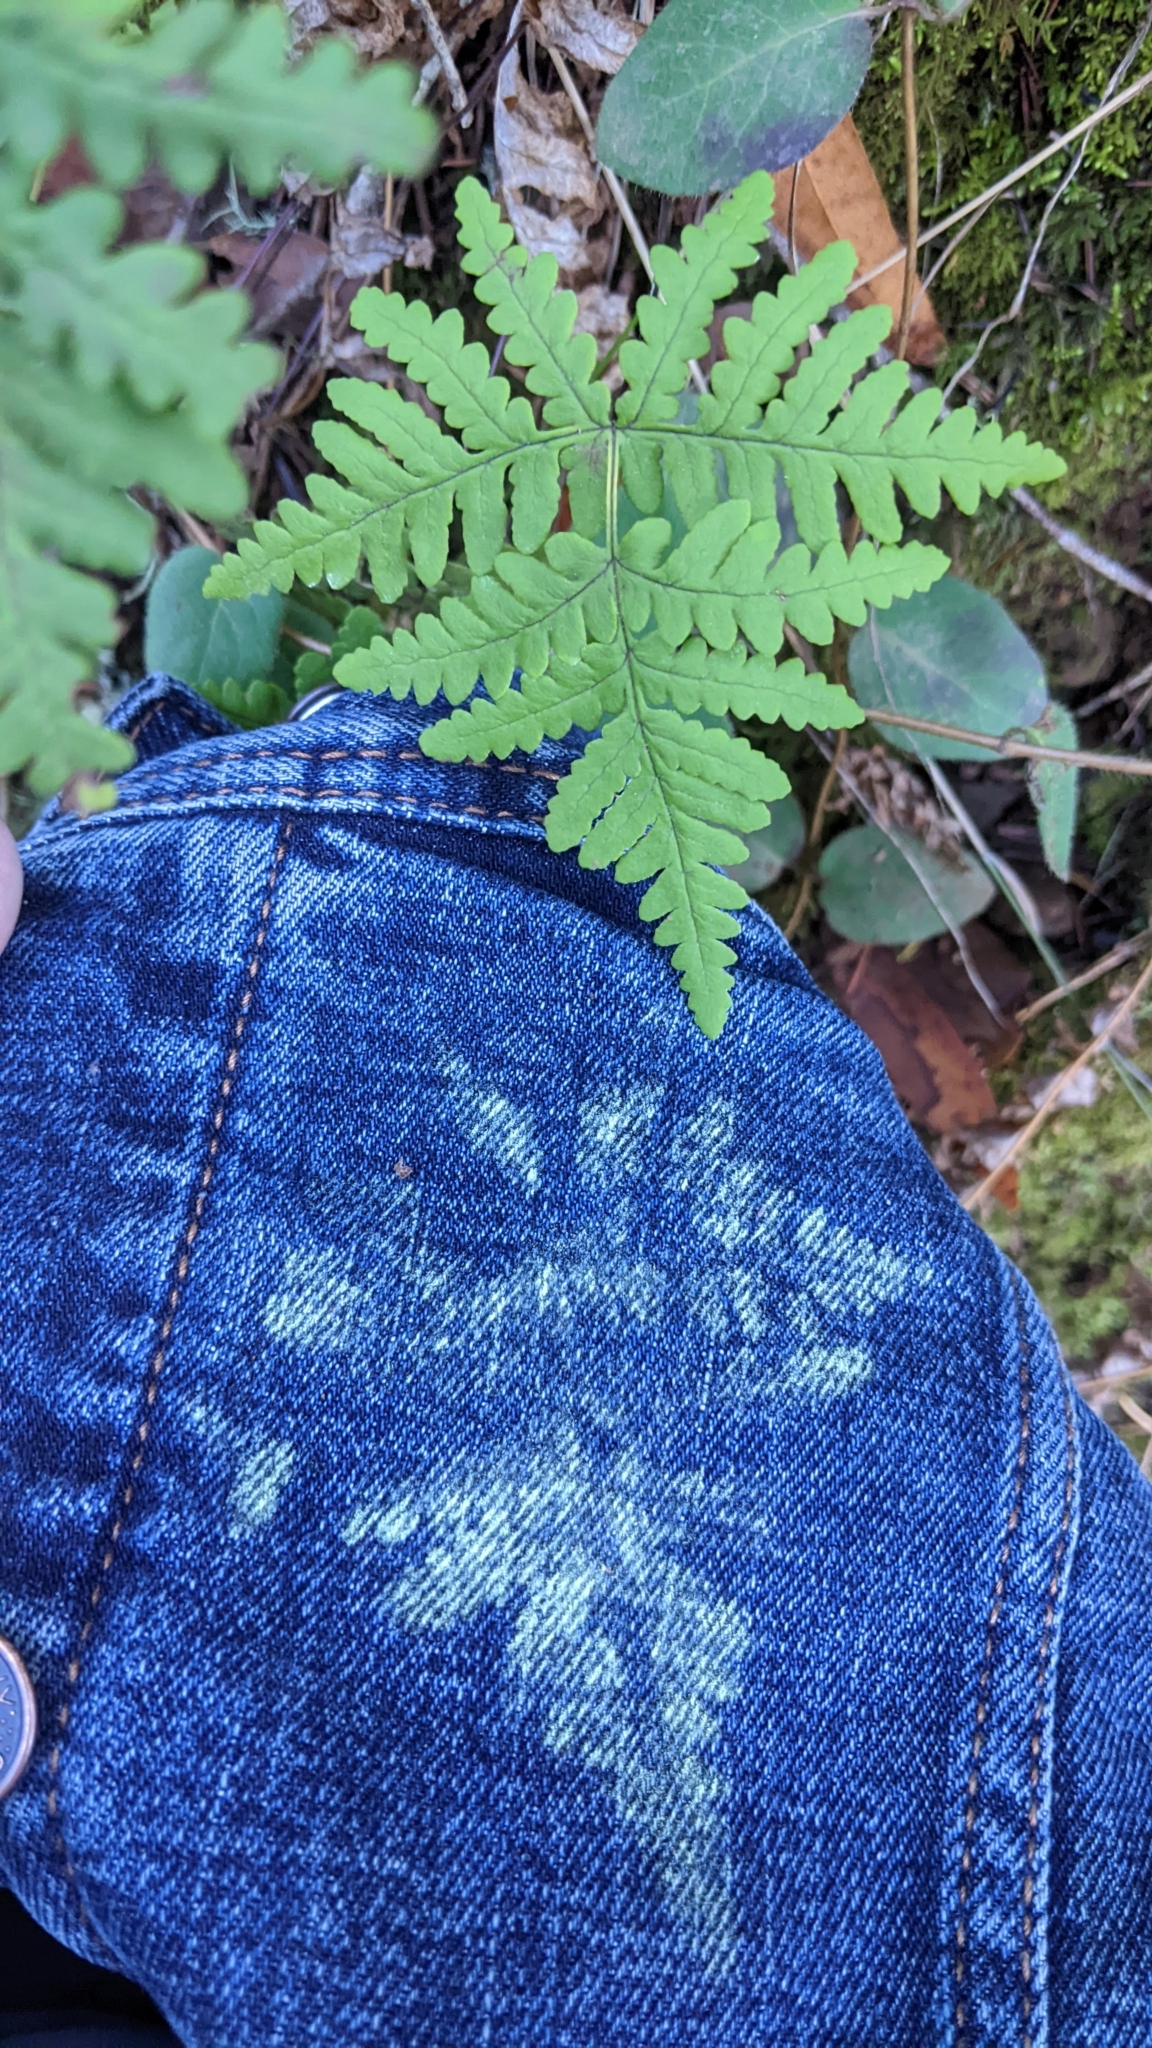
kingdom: Plantae
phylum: Tracheophyta
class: Polypodiopsida
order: Polypodiales
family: Pteridaceae
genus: Pentagramma
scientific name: Pentagramma triangularis
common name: Gold fern
